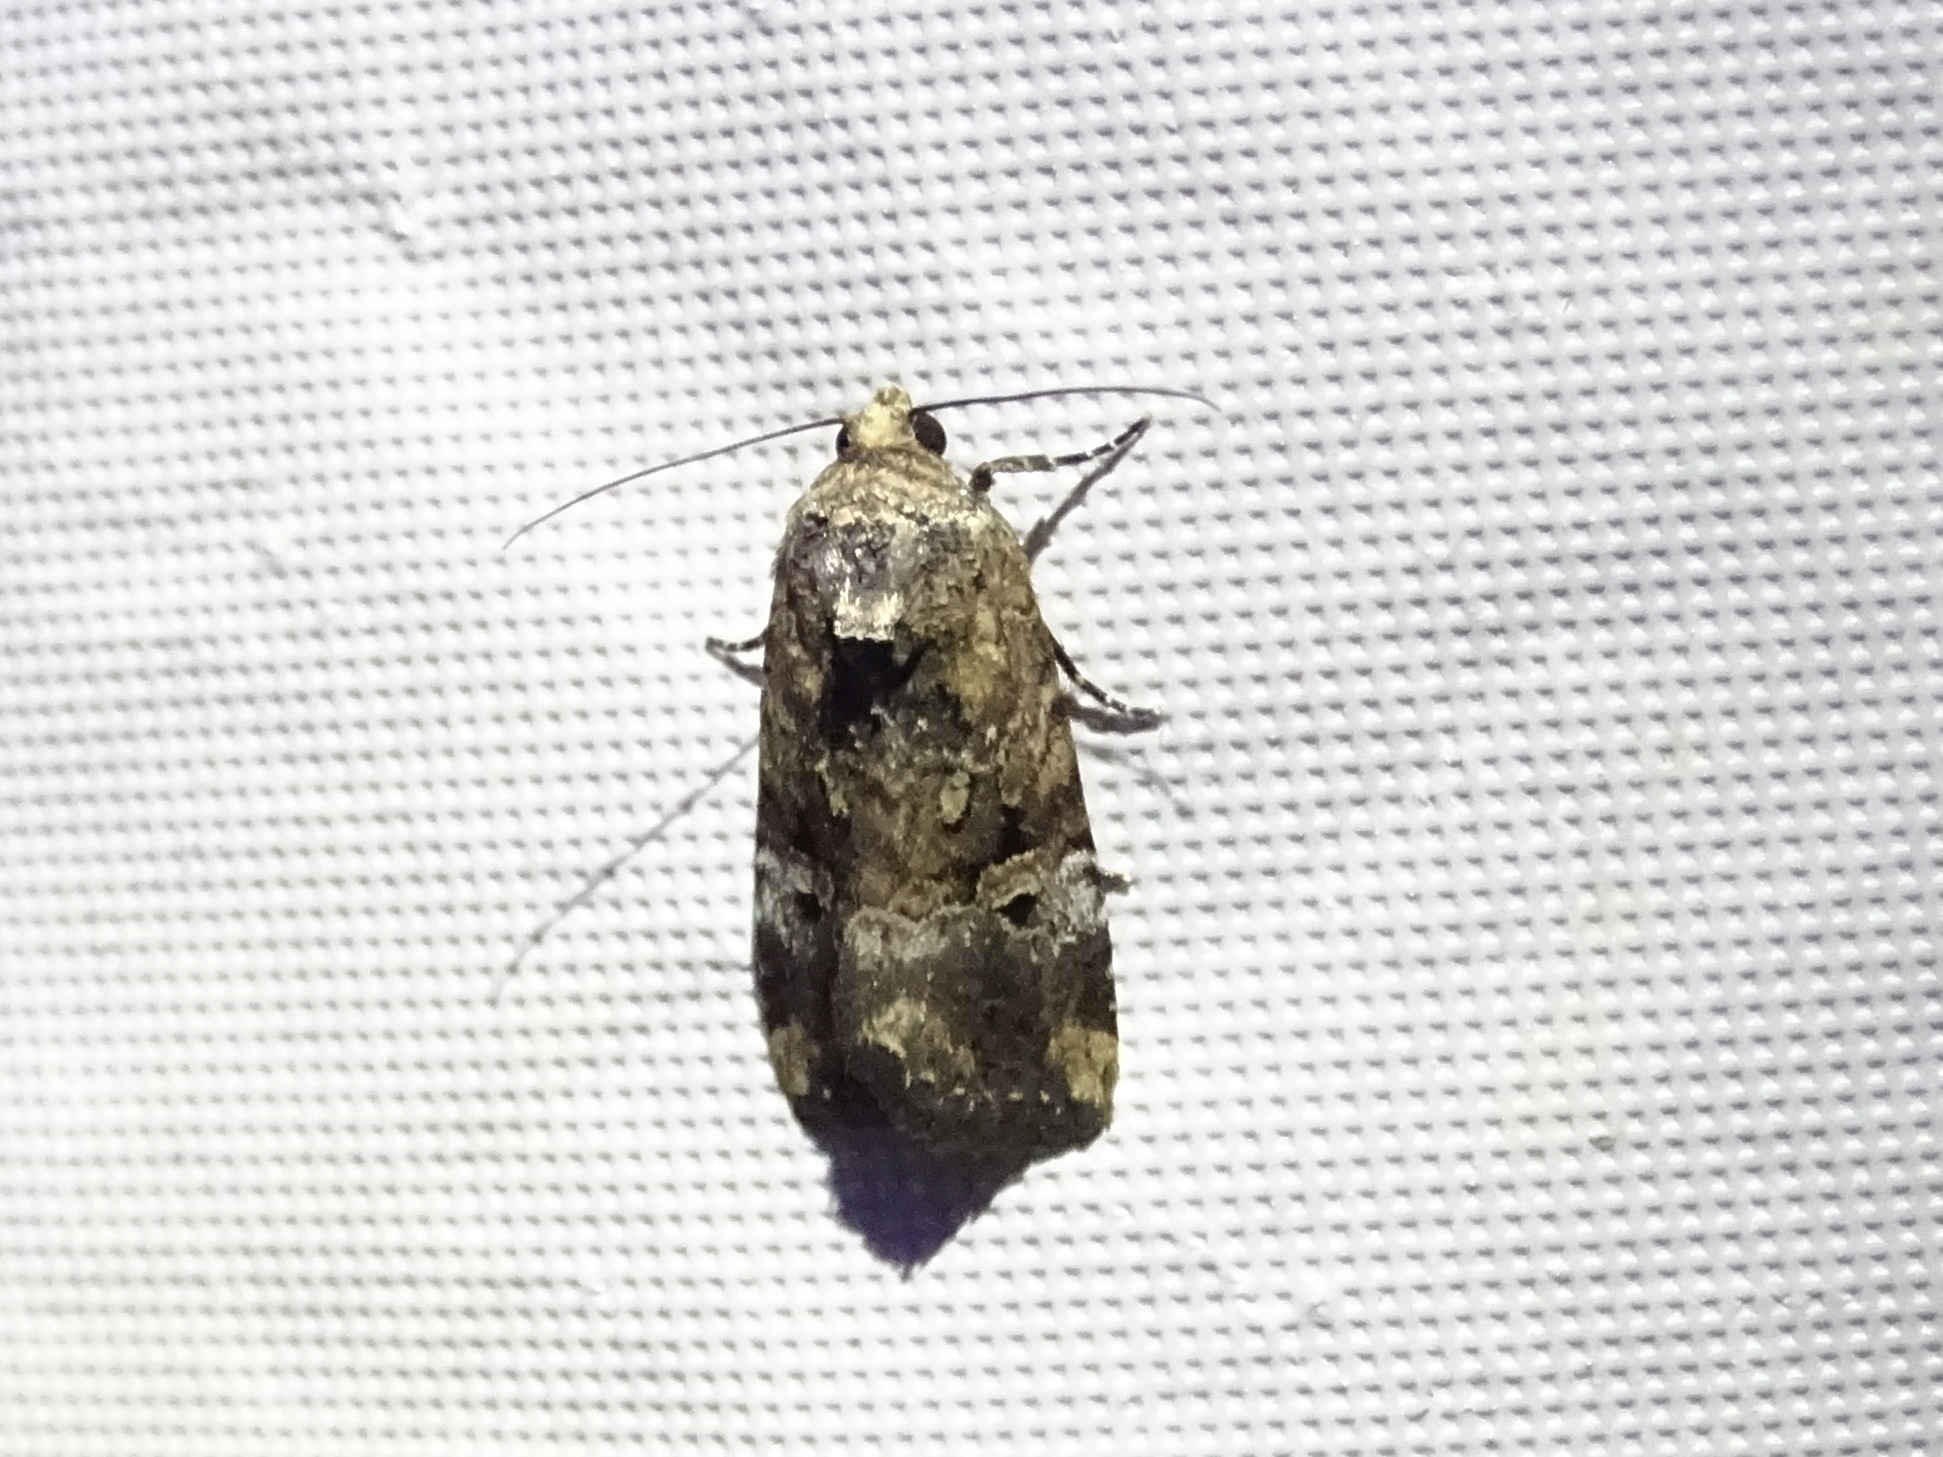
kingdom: Animalia
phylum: Arthropoda
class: Insecta
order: Lepidoptera
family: Noctuidae
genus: Elaphria
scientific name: Elaphria chalcedonia
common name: Chalcedony midget
